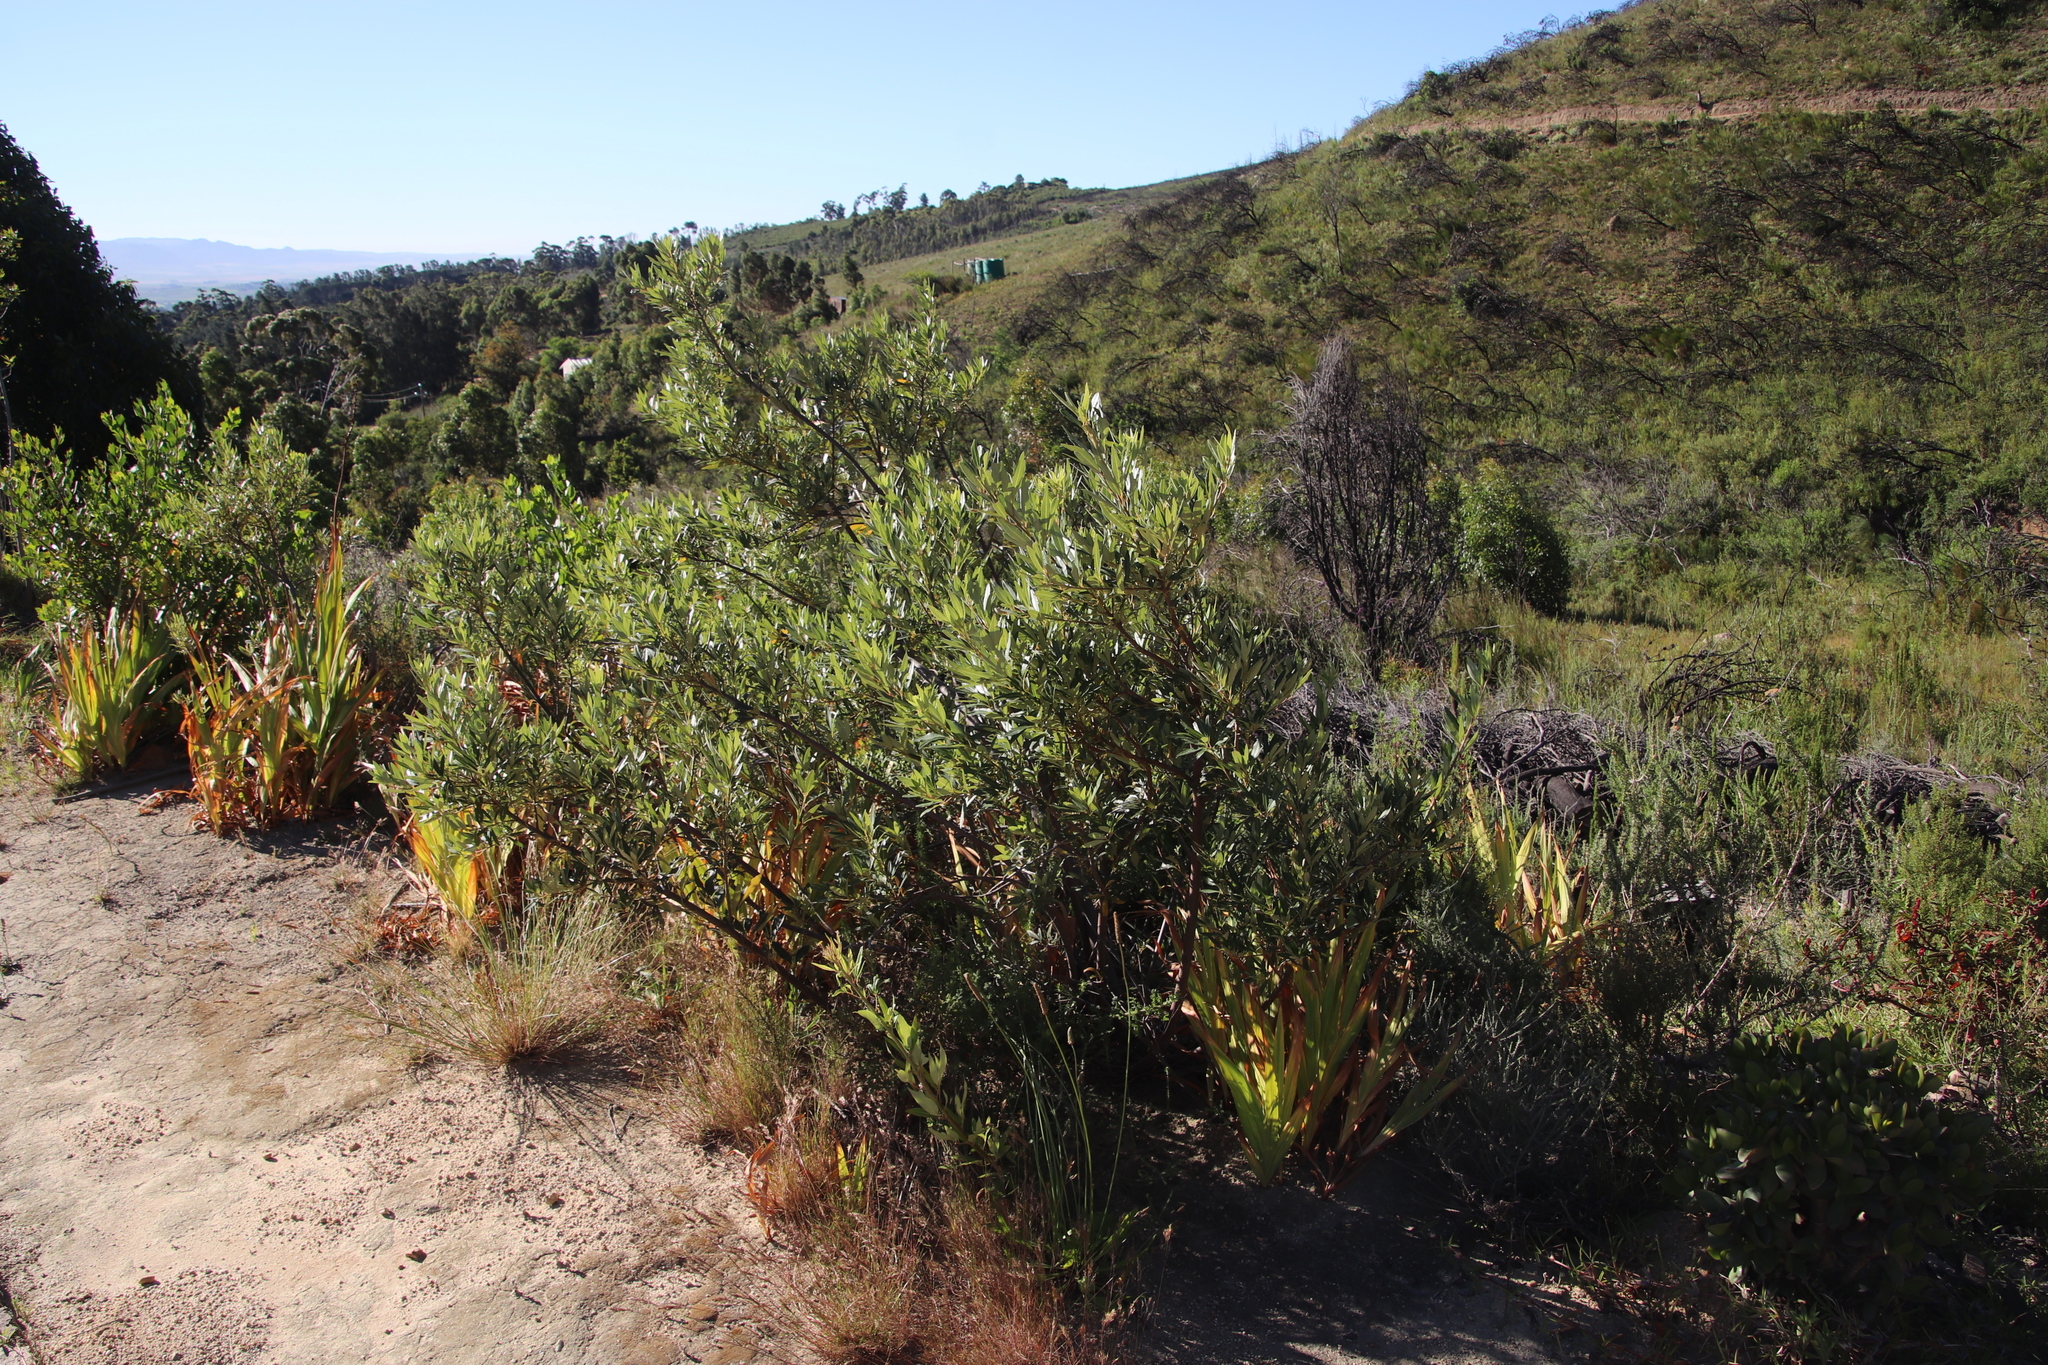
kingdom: Plantae
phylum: Tracheophyta
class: Magnoliopsida
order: Sapindales
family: Anacardiaceae
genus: Searsia
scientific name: Searsia angustifolia
